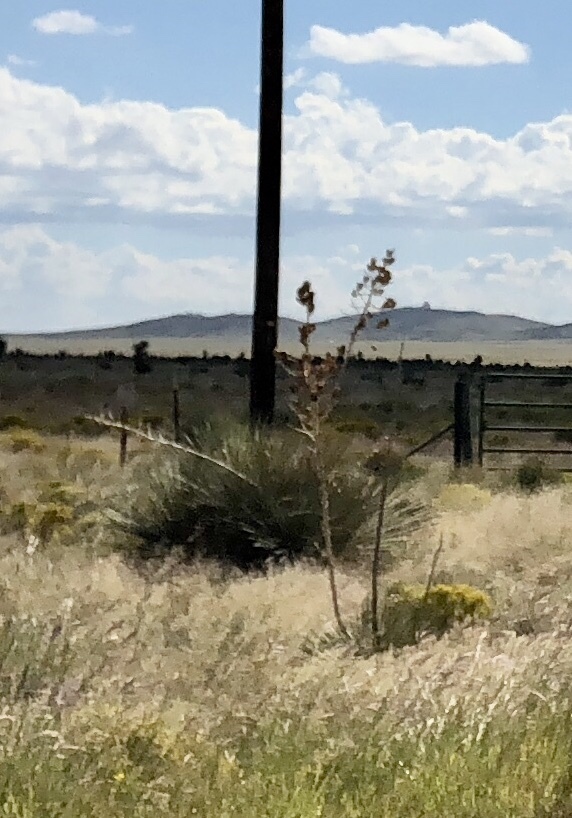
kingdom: Plantae
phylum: Tracheophyta
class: Liliopsida
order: Asparagales
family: Asparagaceae
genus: Yucca
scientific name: Yucca elata
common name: Palmella
